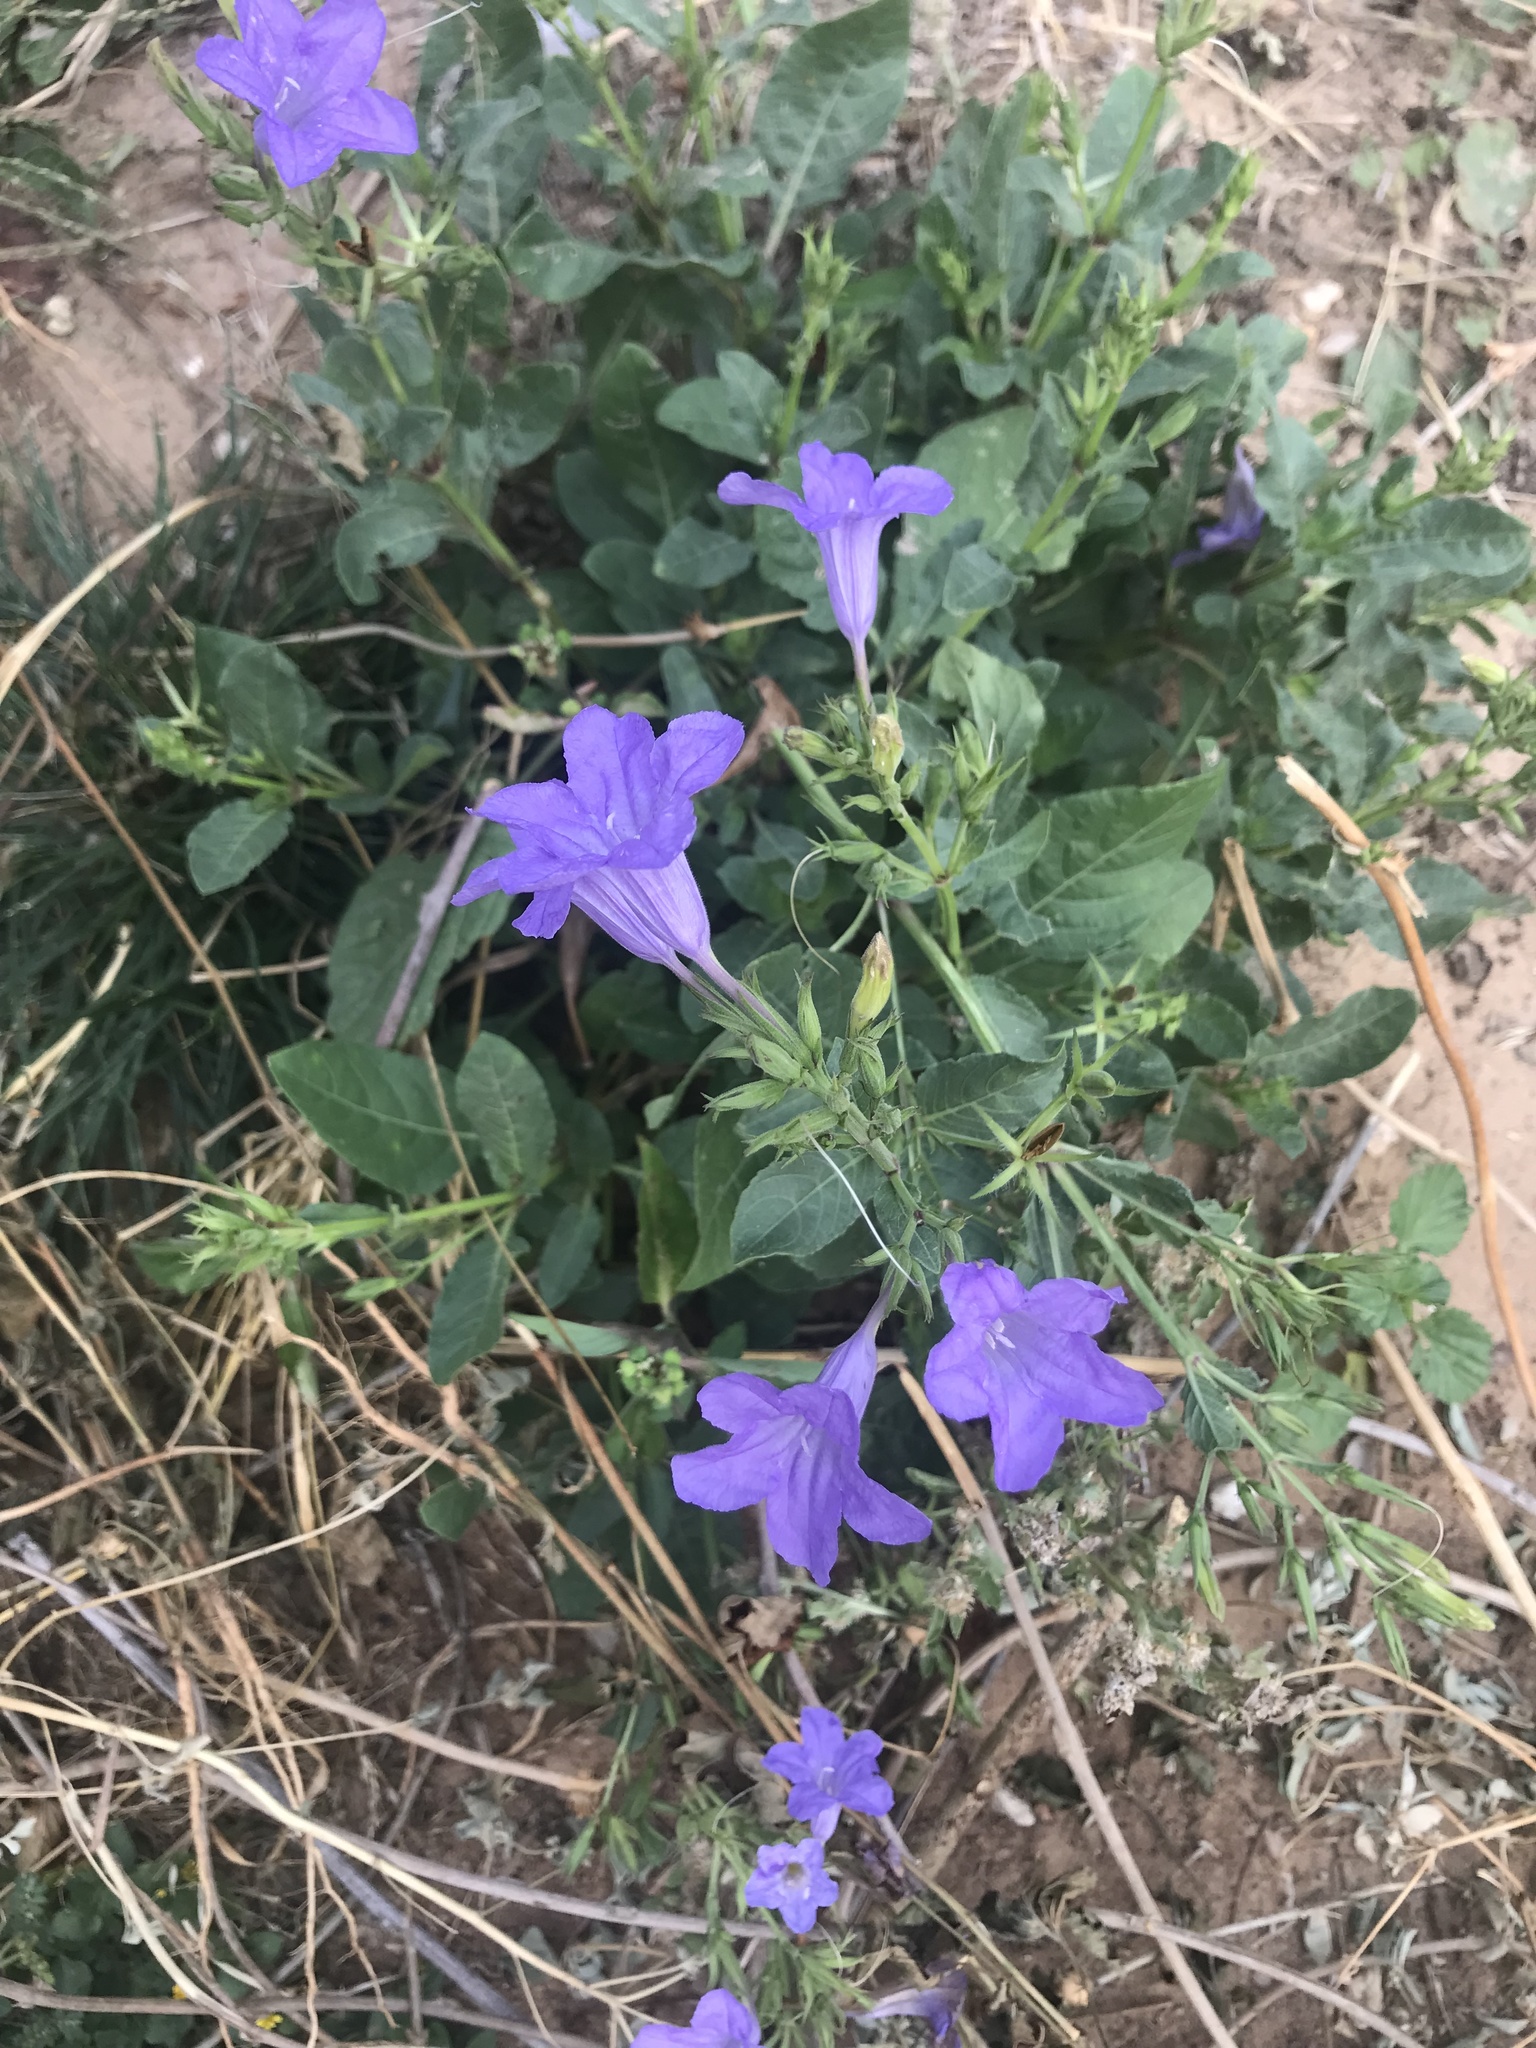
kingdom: Plantae
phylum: Tracheophyta
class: Magnoliopsida
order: Lamiales
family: Acanthaceae
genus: Ruellia
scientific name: Ruellia ciliatiflora
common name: Hairyflower wild petunia
